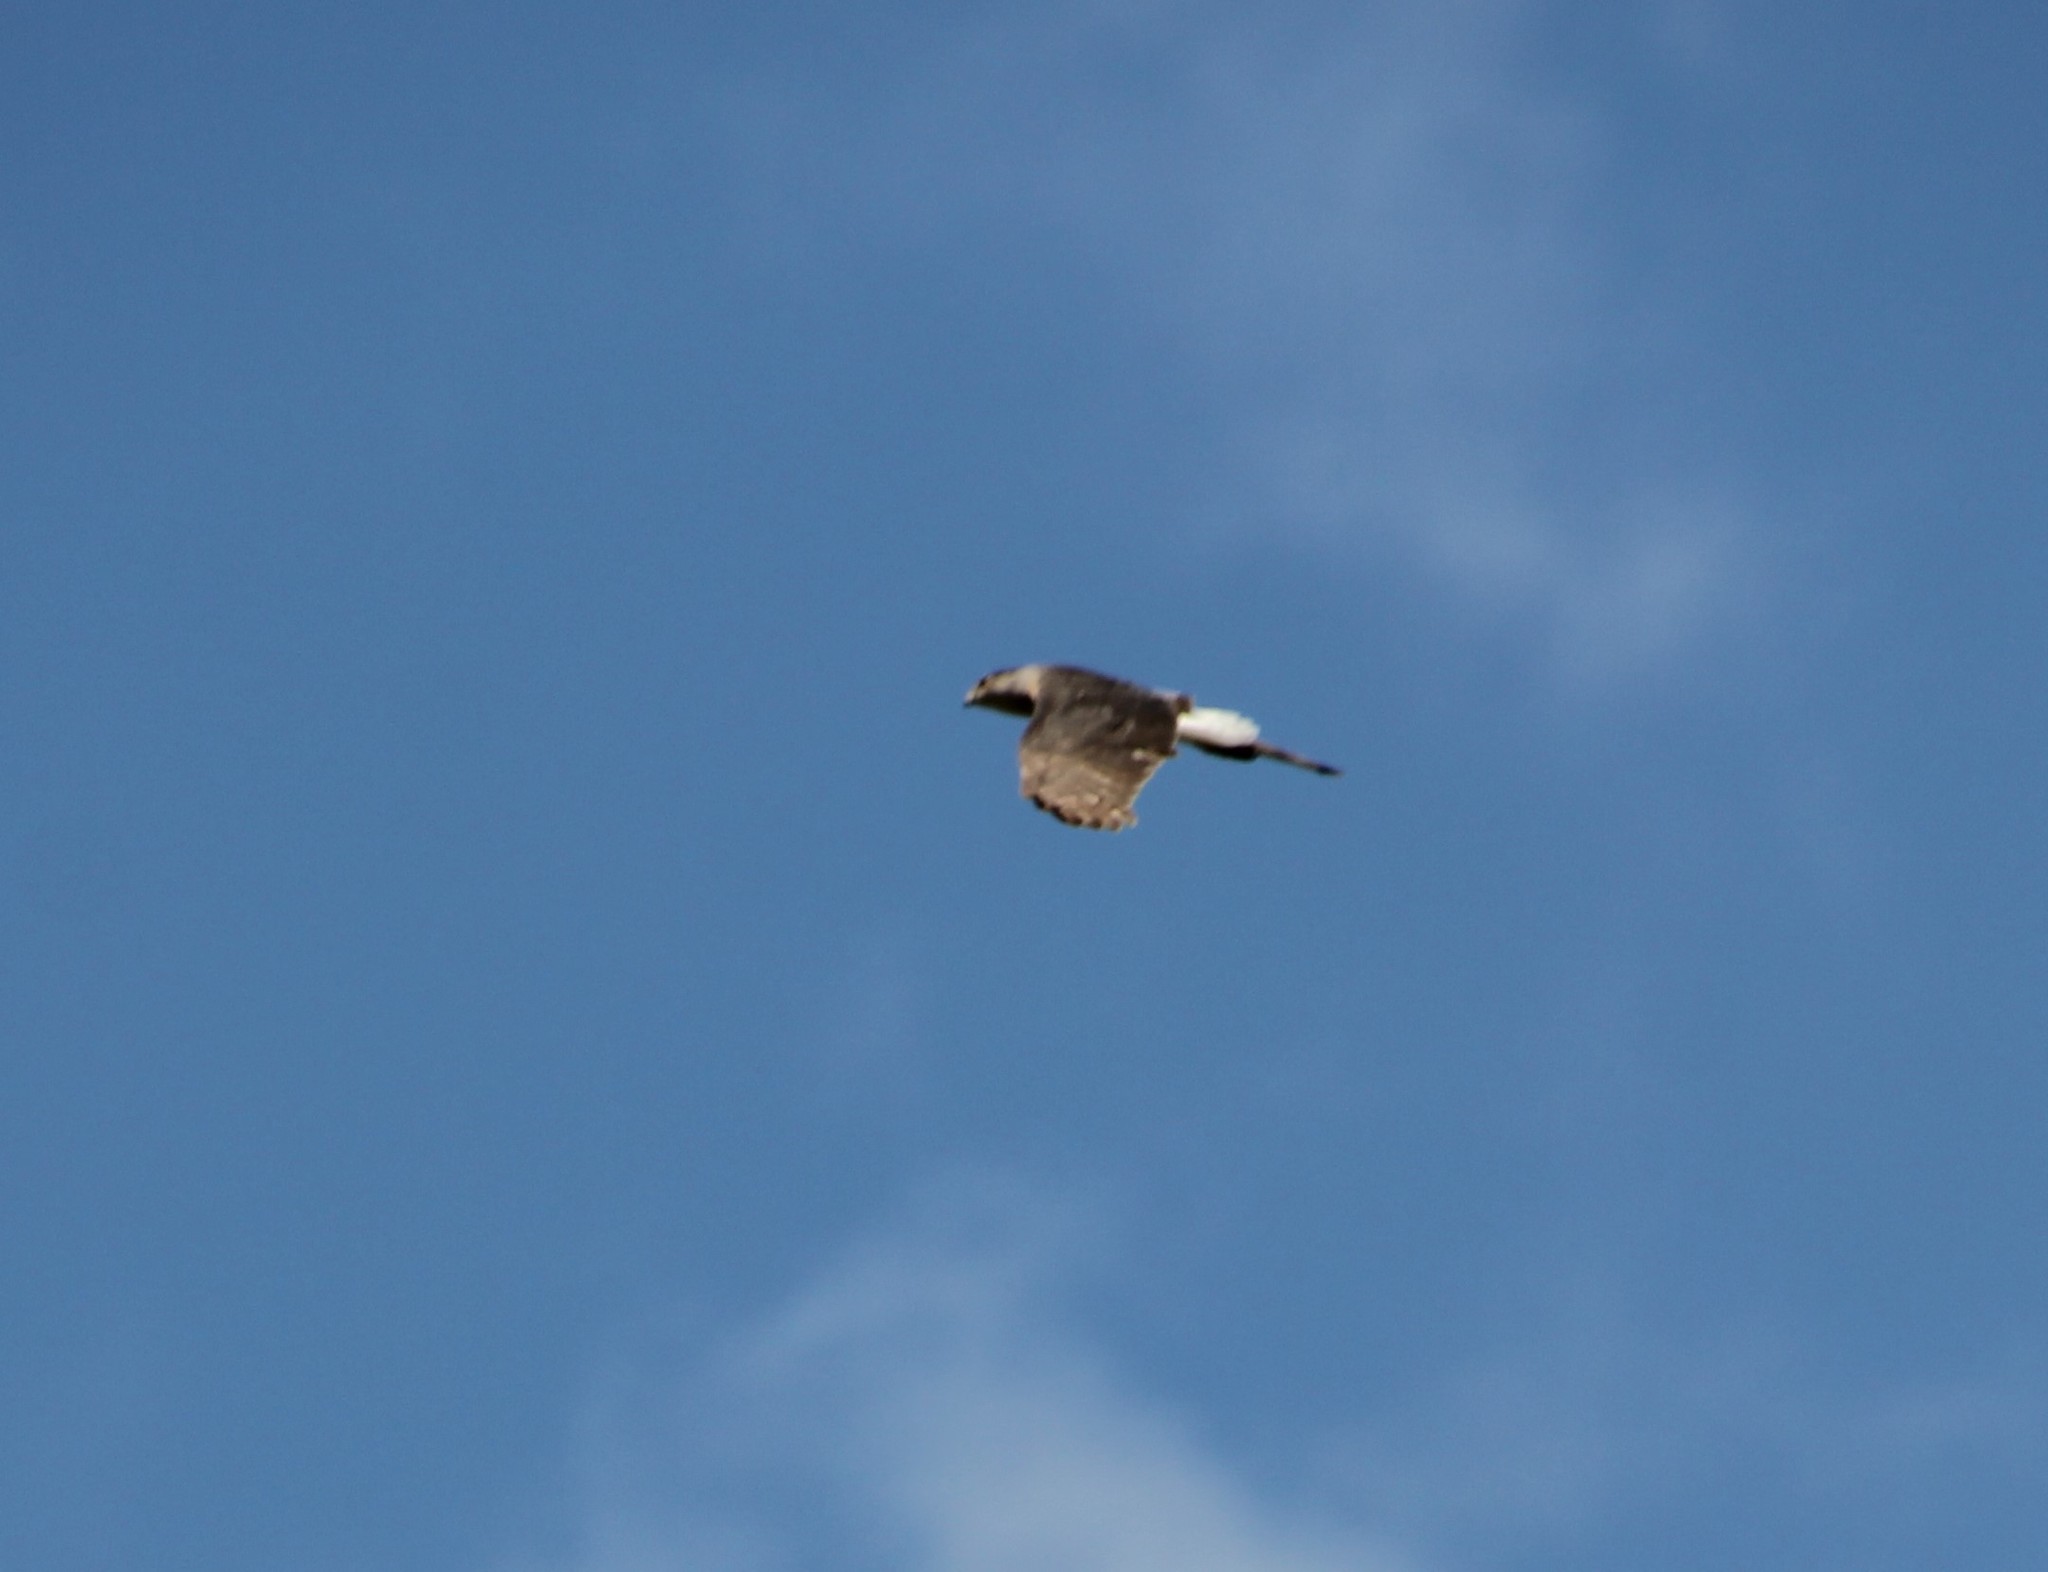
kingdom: Animalia
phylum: Chordata
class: Aves
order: Accipitriformes
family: Accipitridae
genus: Accipiter
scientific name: Accipiter cooperii
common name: Cooper's hawk
